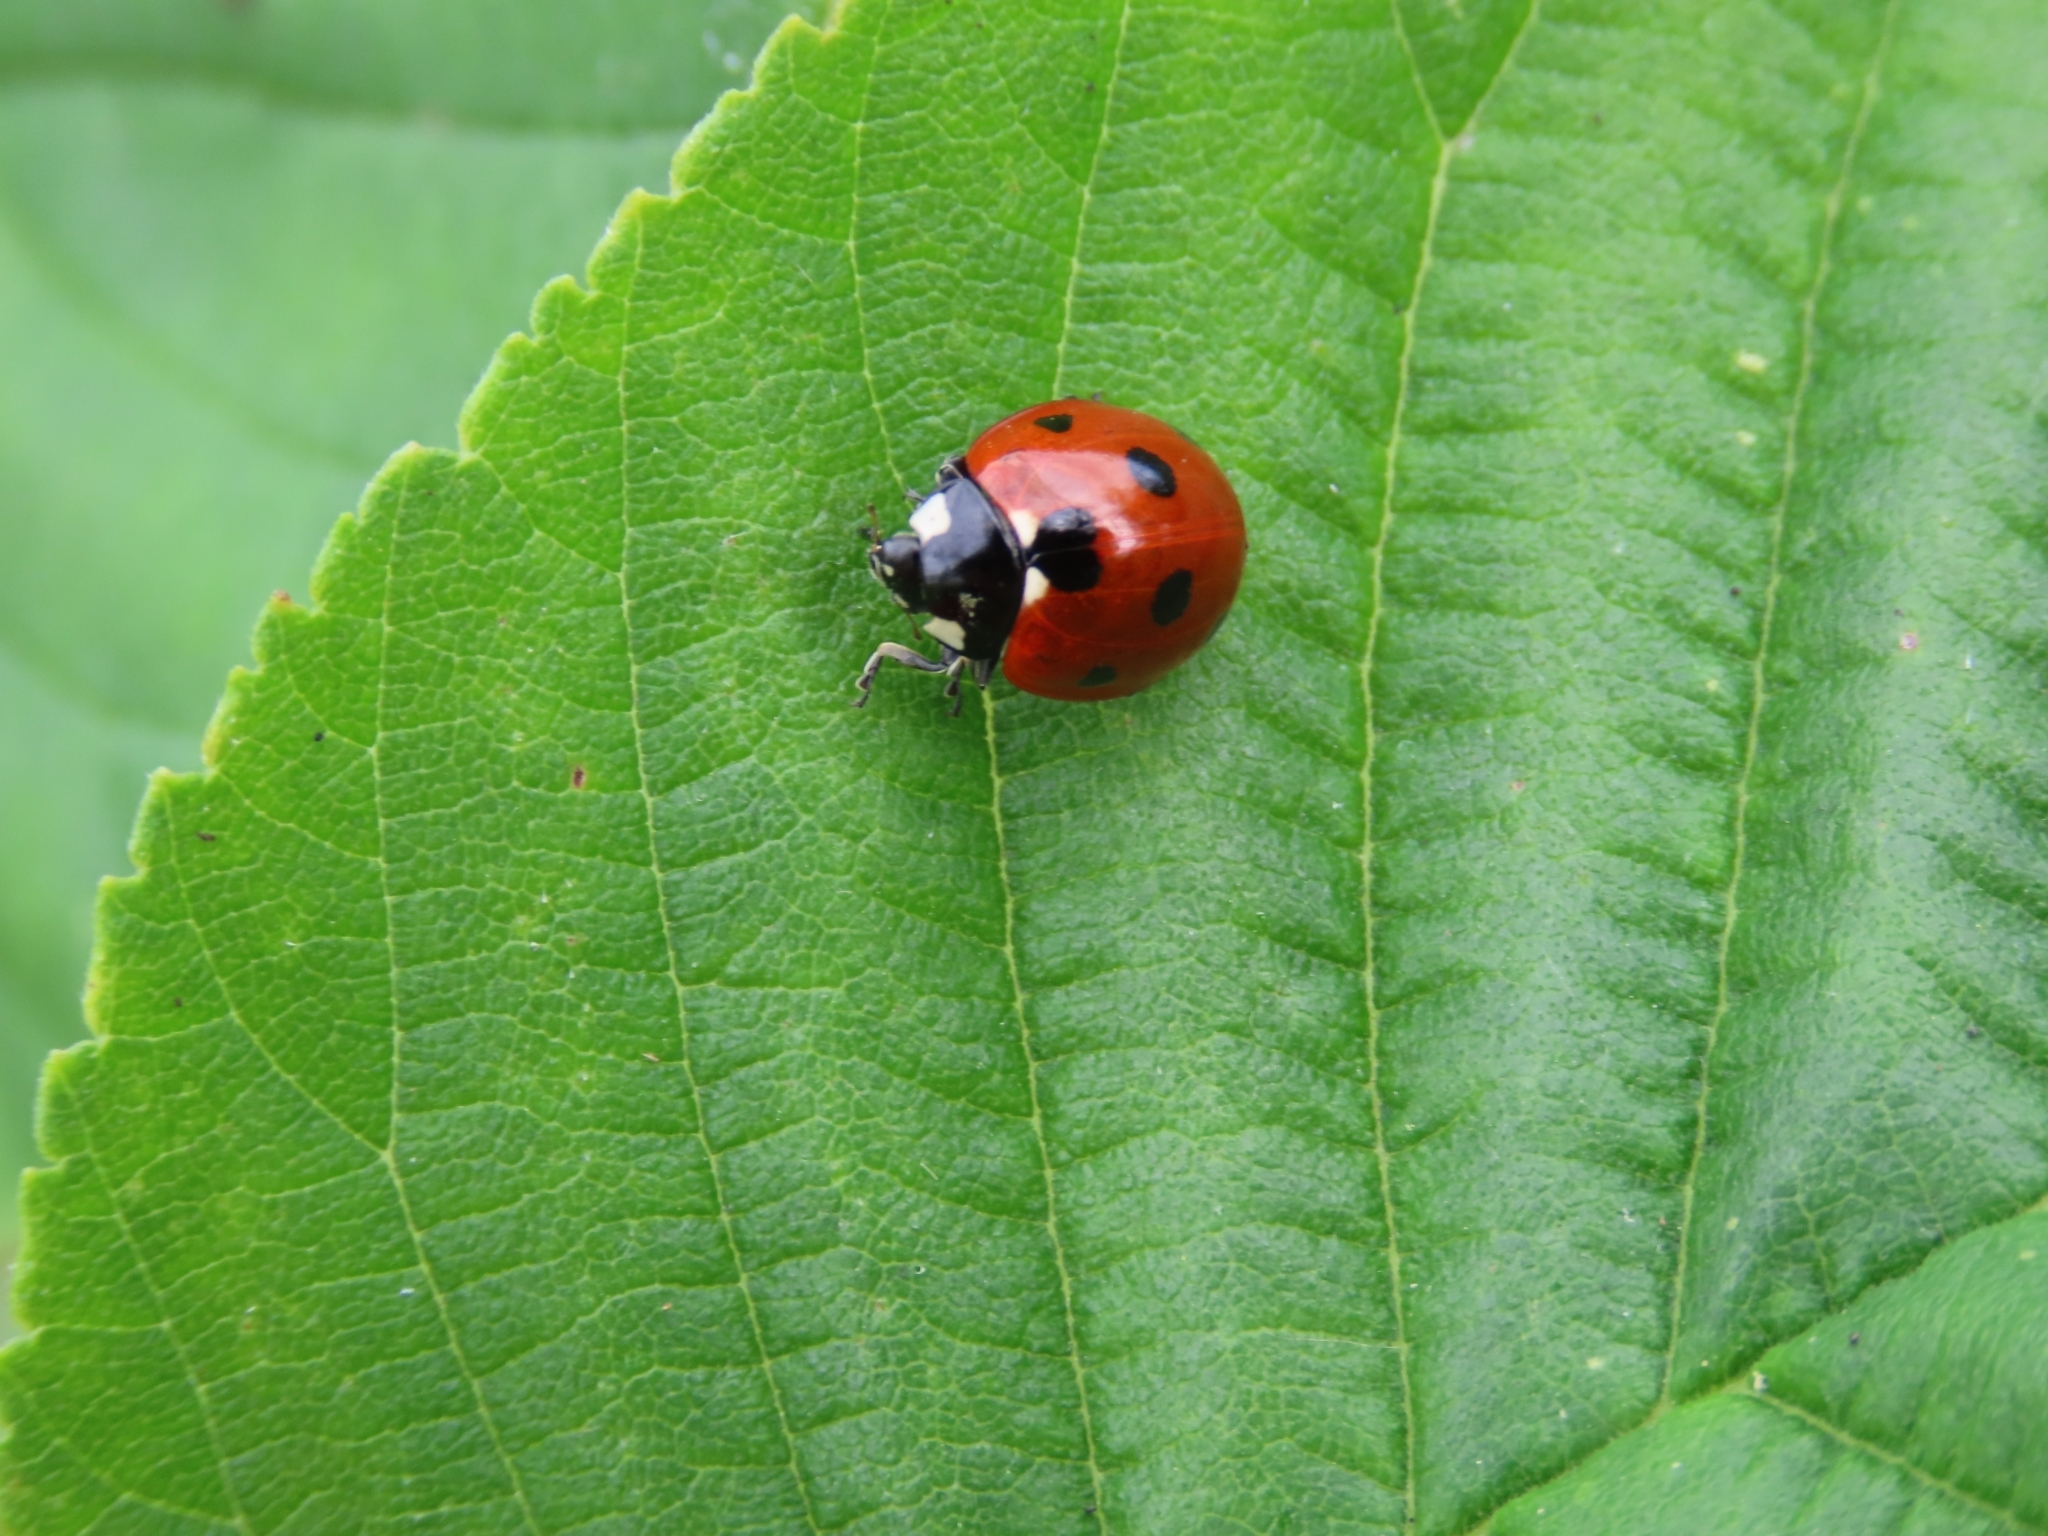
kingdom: Animalia
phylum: Arthropoda
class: Insecta
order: Coleoptera
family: Coccinellidae
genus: Coccinella
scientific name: Coccinella septempunctata
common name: Sevenspotted lady beetle
